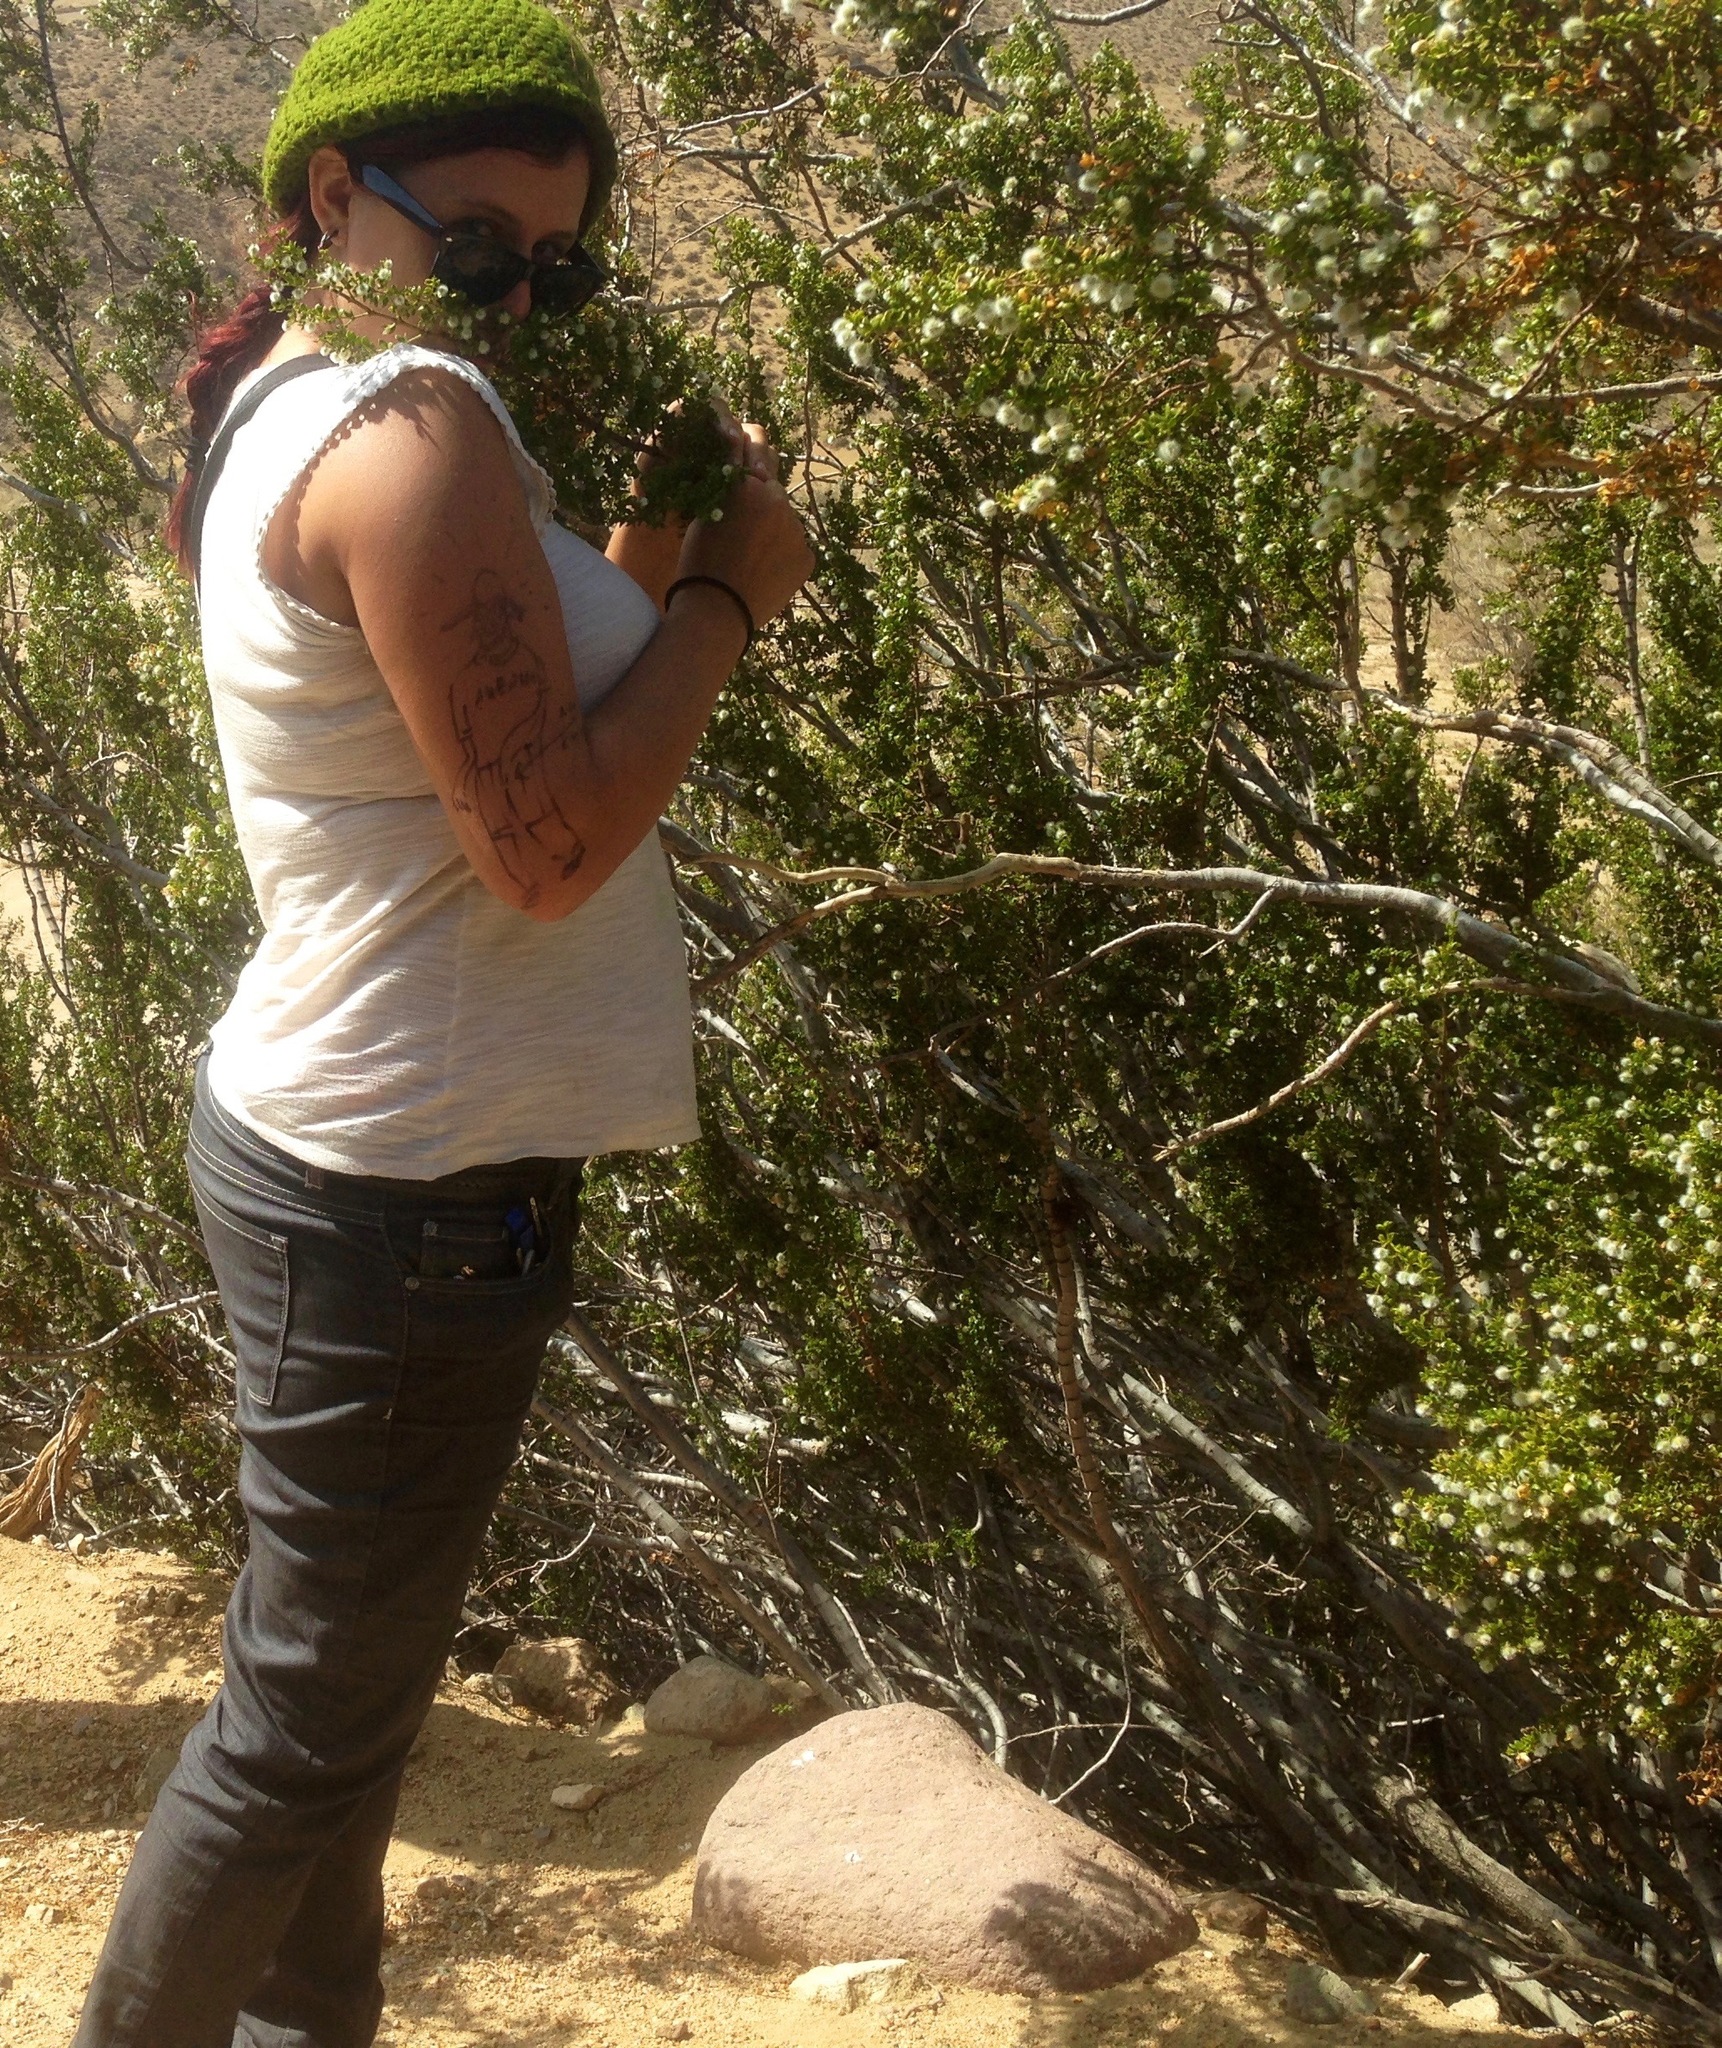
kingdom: Plantae
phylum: Tracheophyta
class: Magnoliopsida
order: Zygophyllales
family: Zygophyllaceae
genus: Larrea
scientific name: Larrea tridentata
